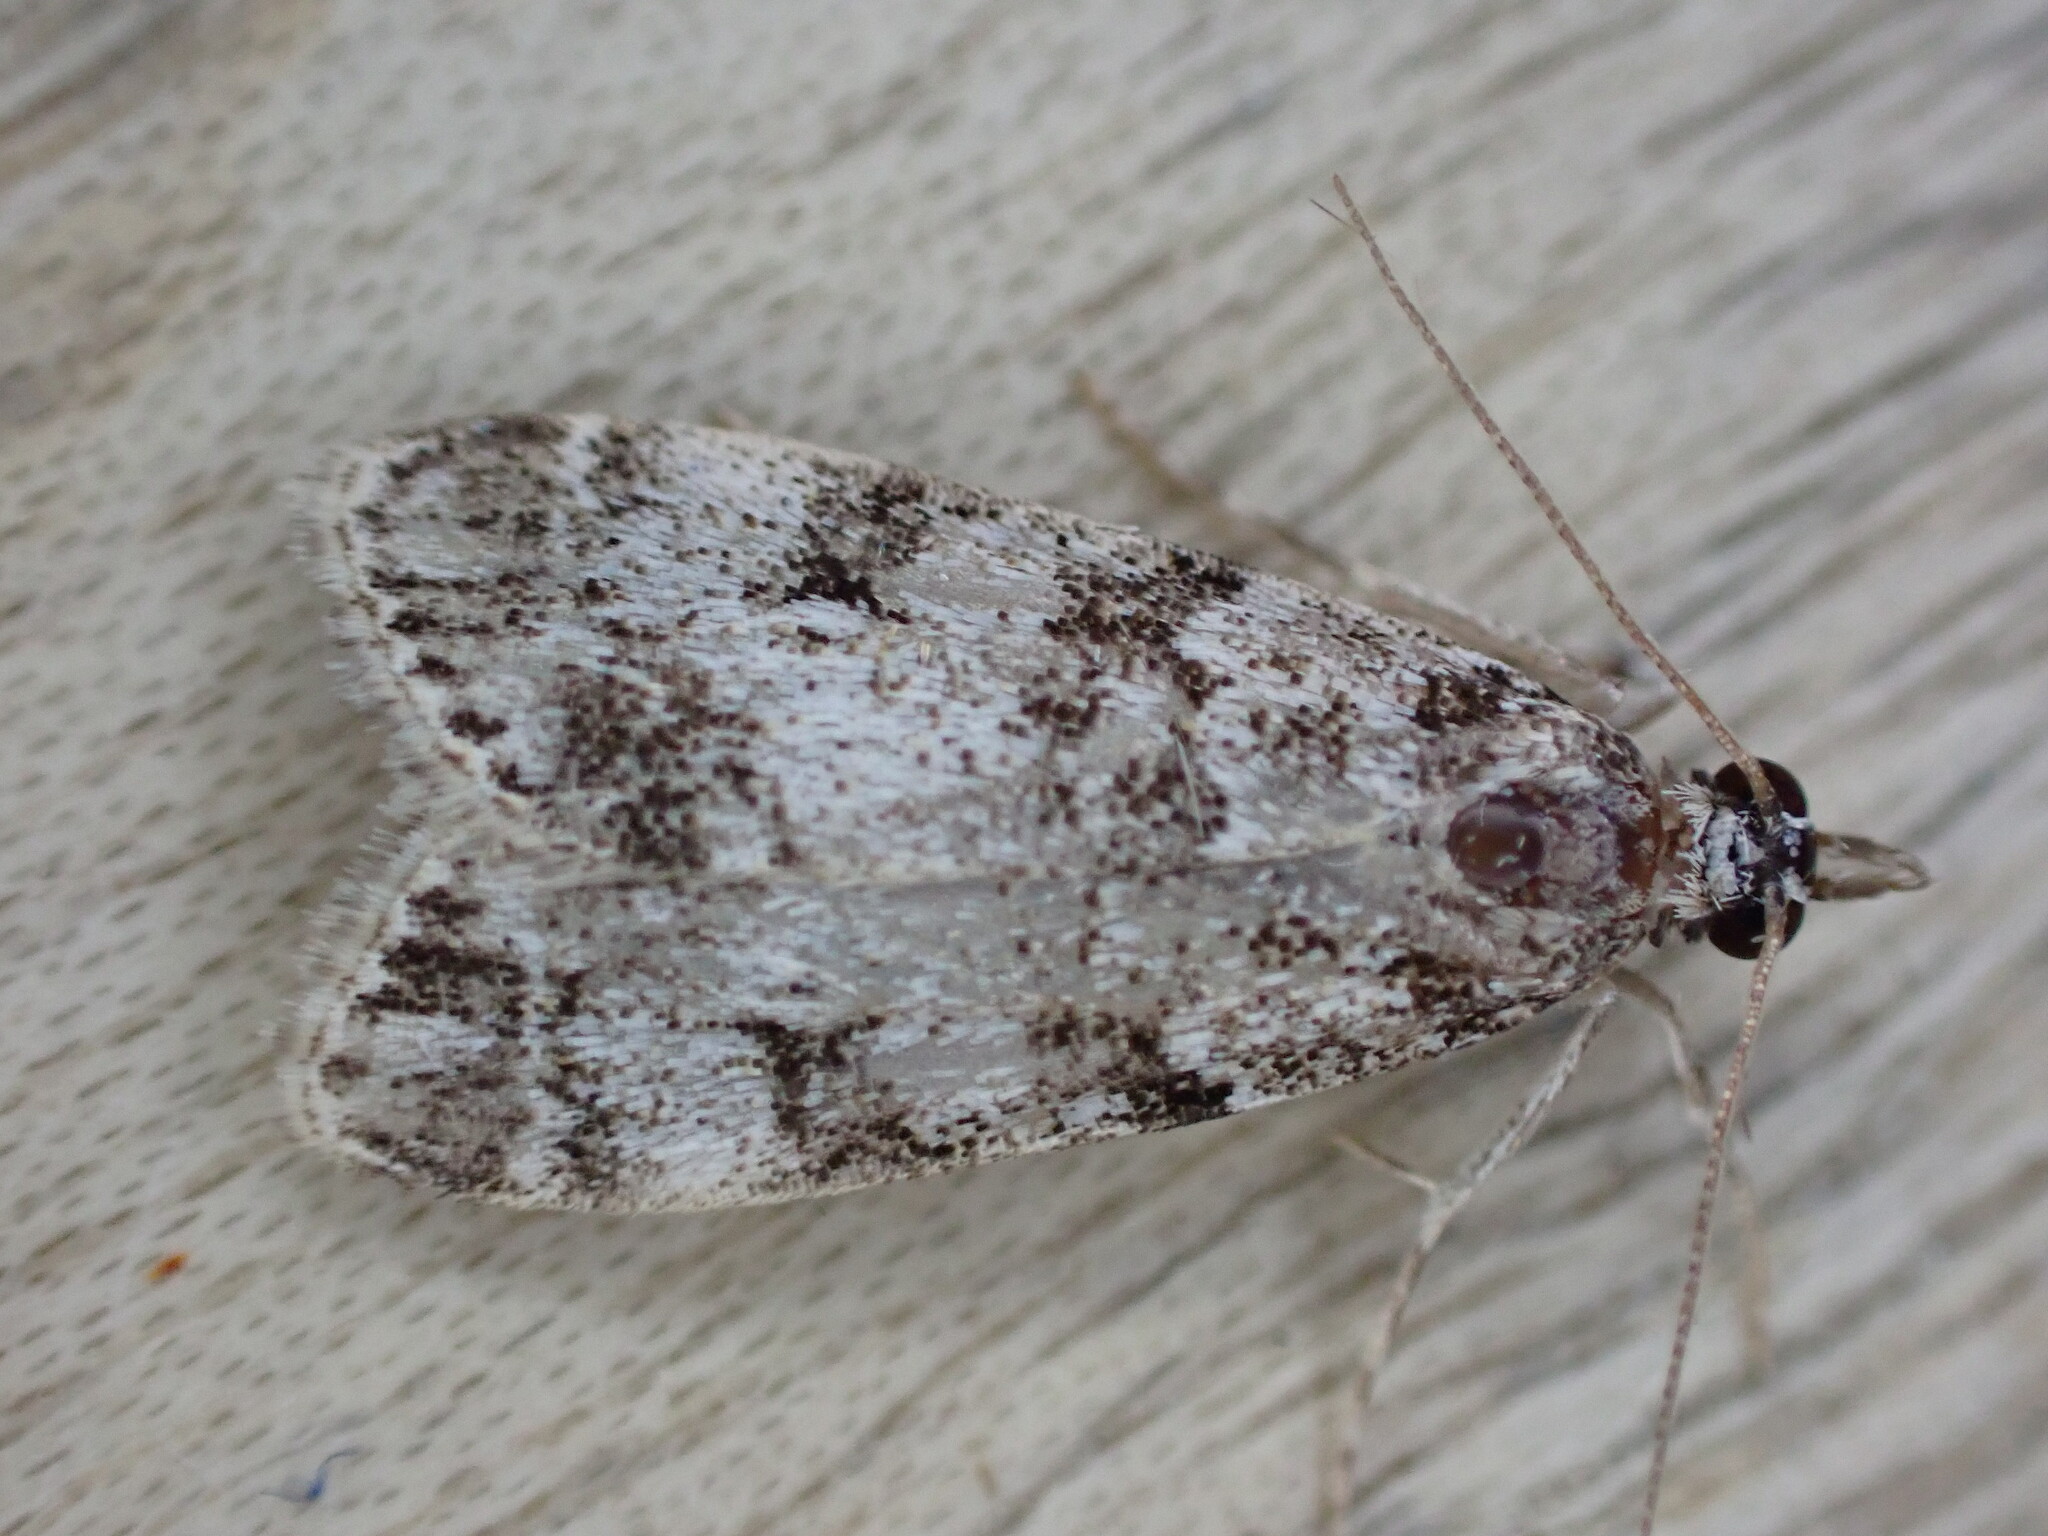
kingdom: Animalia
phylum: Arthropoda
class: Insecta
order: Lepidoptera
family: Crambidae
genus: Eudonia
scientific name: Eudonia lacustrata
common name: Little grey
